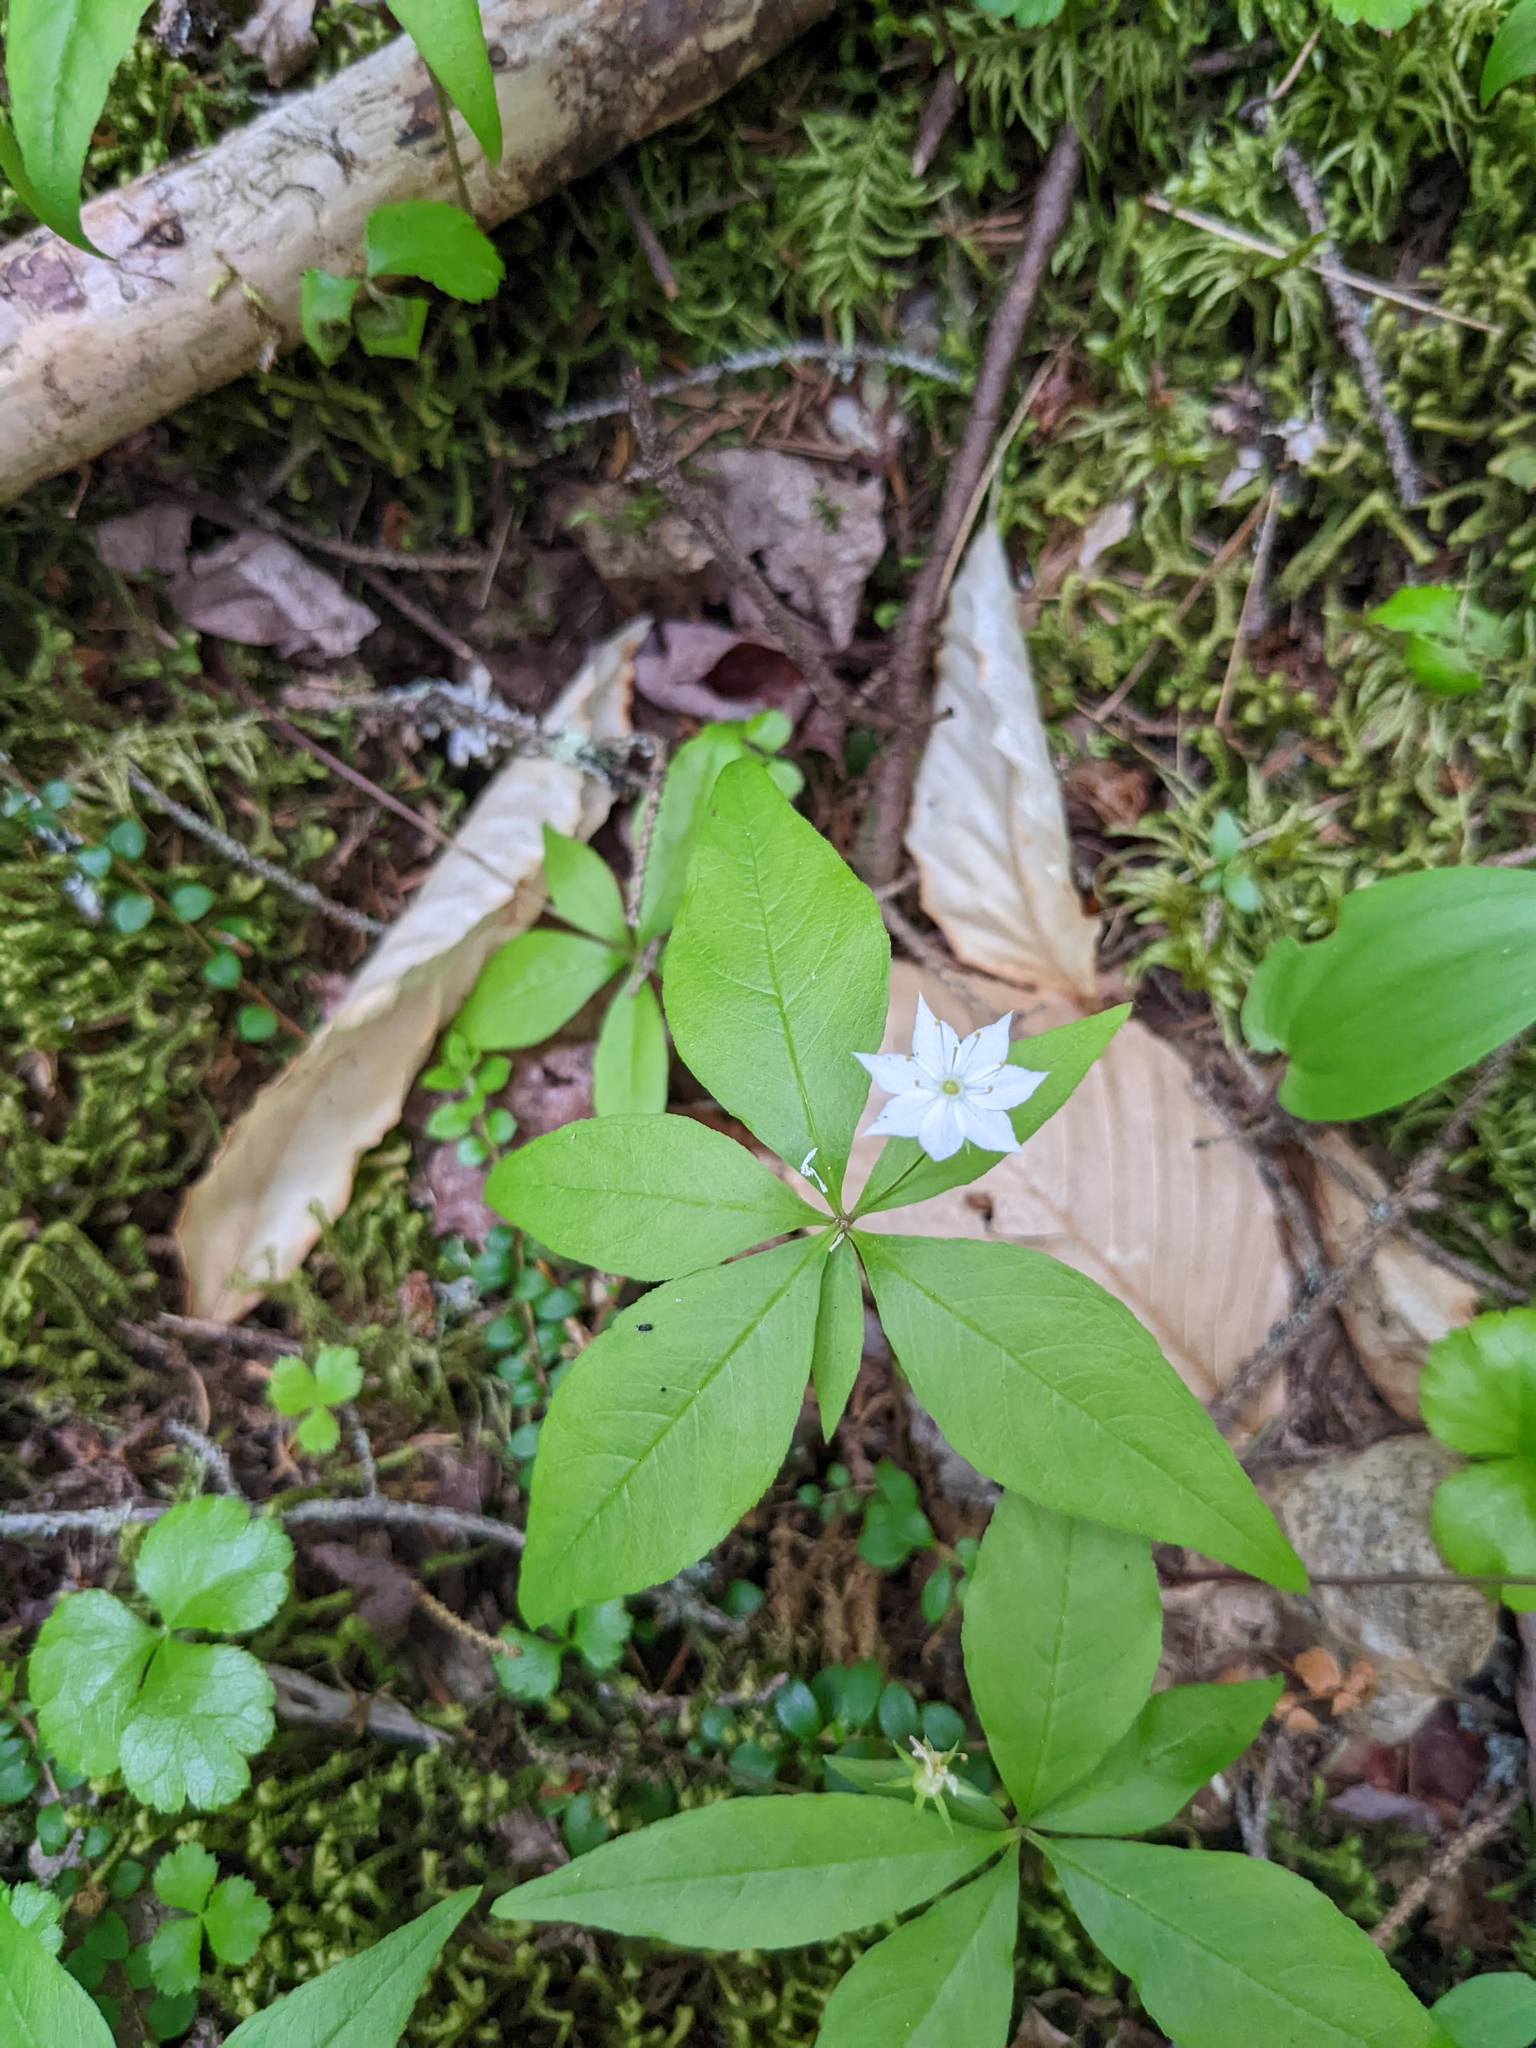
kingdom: Plantae
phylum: Tracheophyta
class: Magnoliopsida
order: Ericales
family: Primulaceae
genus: Lysimachia
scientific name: Lysimachia borealis
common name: American starflower
